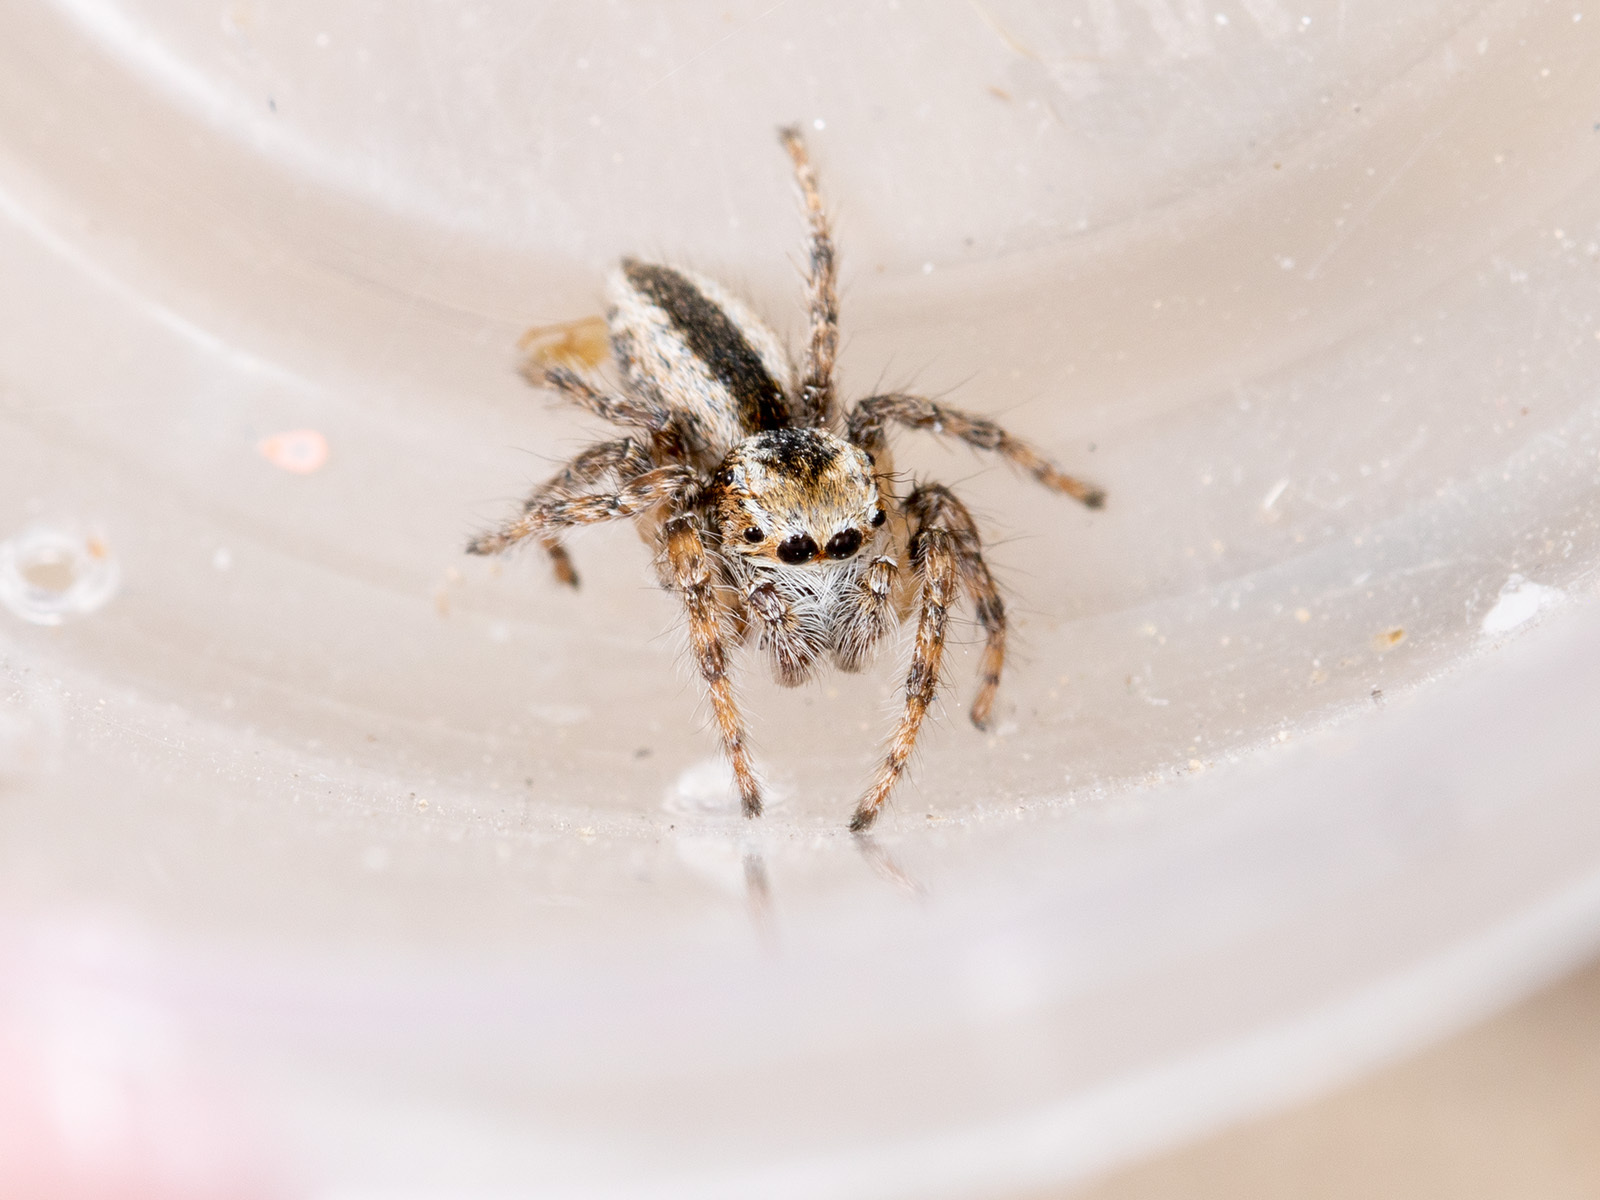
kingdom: Animalia
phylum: Arthropoda
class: Arachnida
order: Araneae
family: Salticidae
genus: Mogrus
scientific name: Mogrus antoninus
